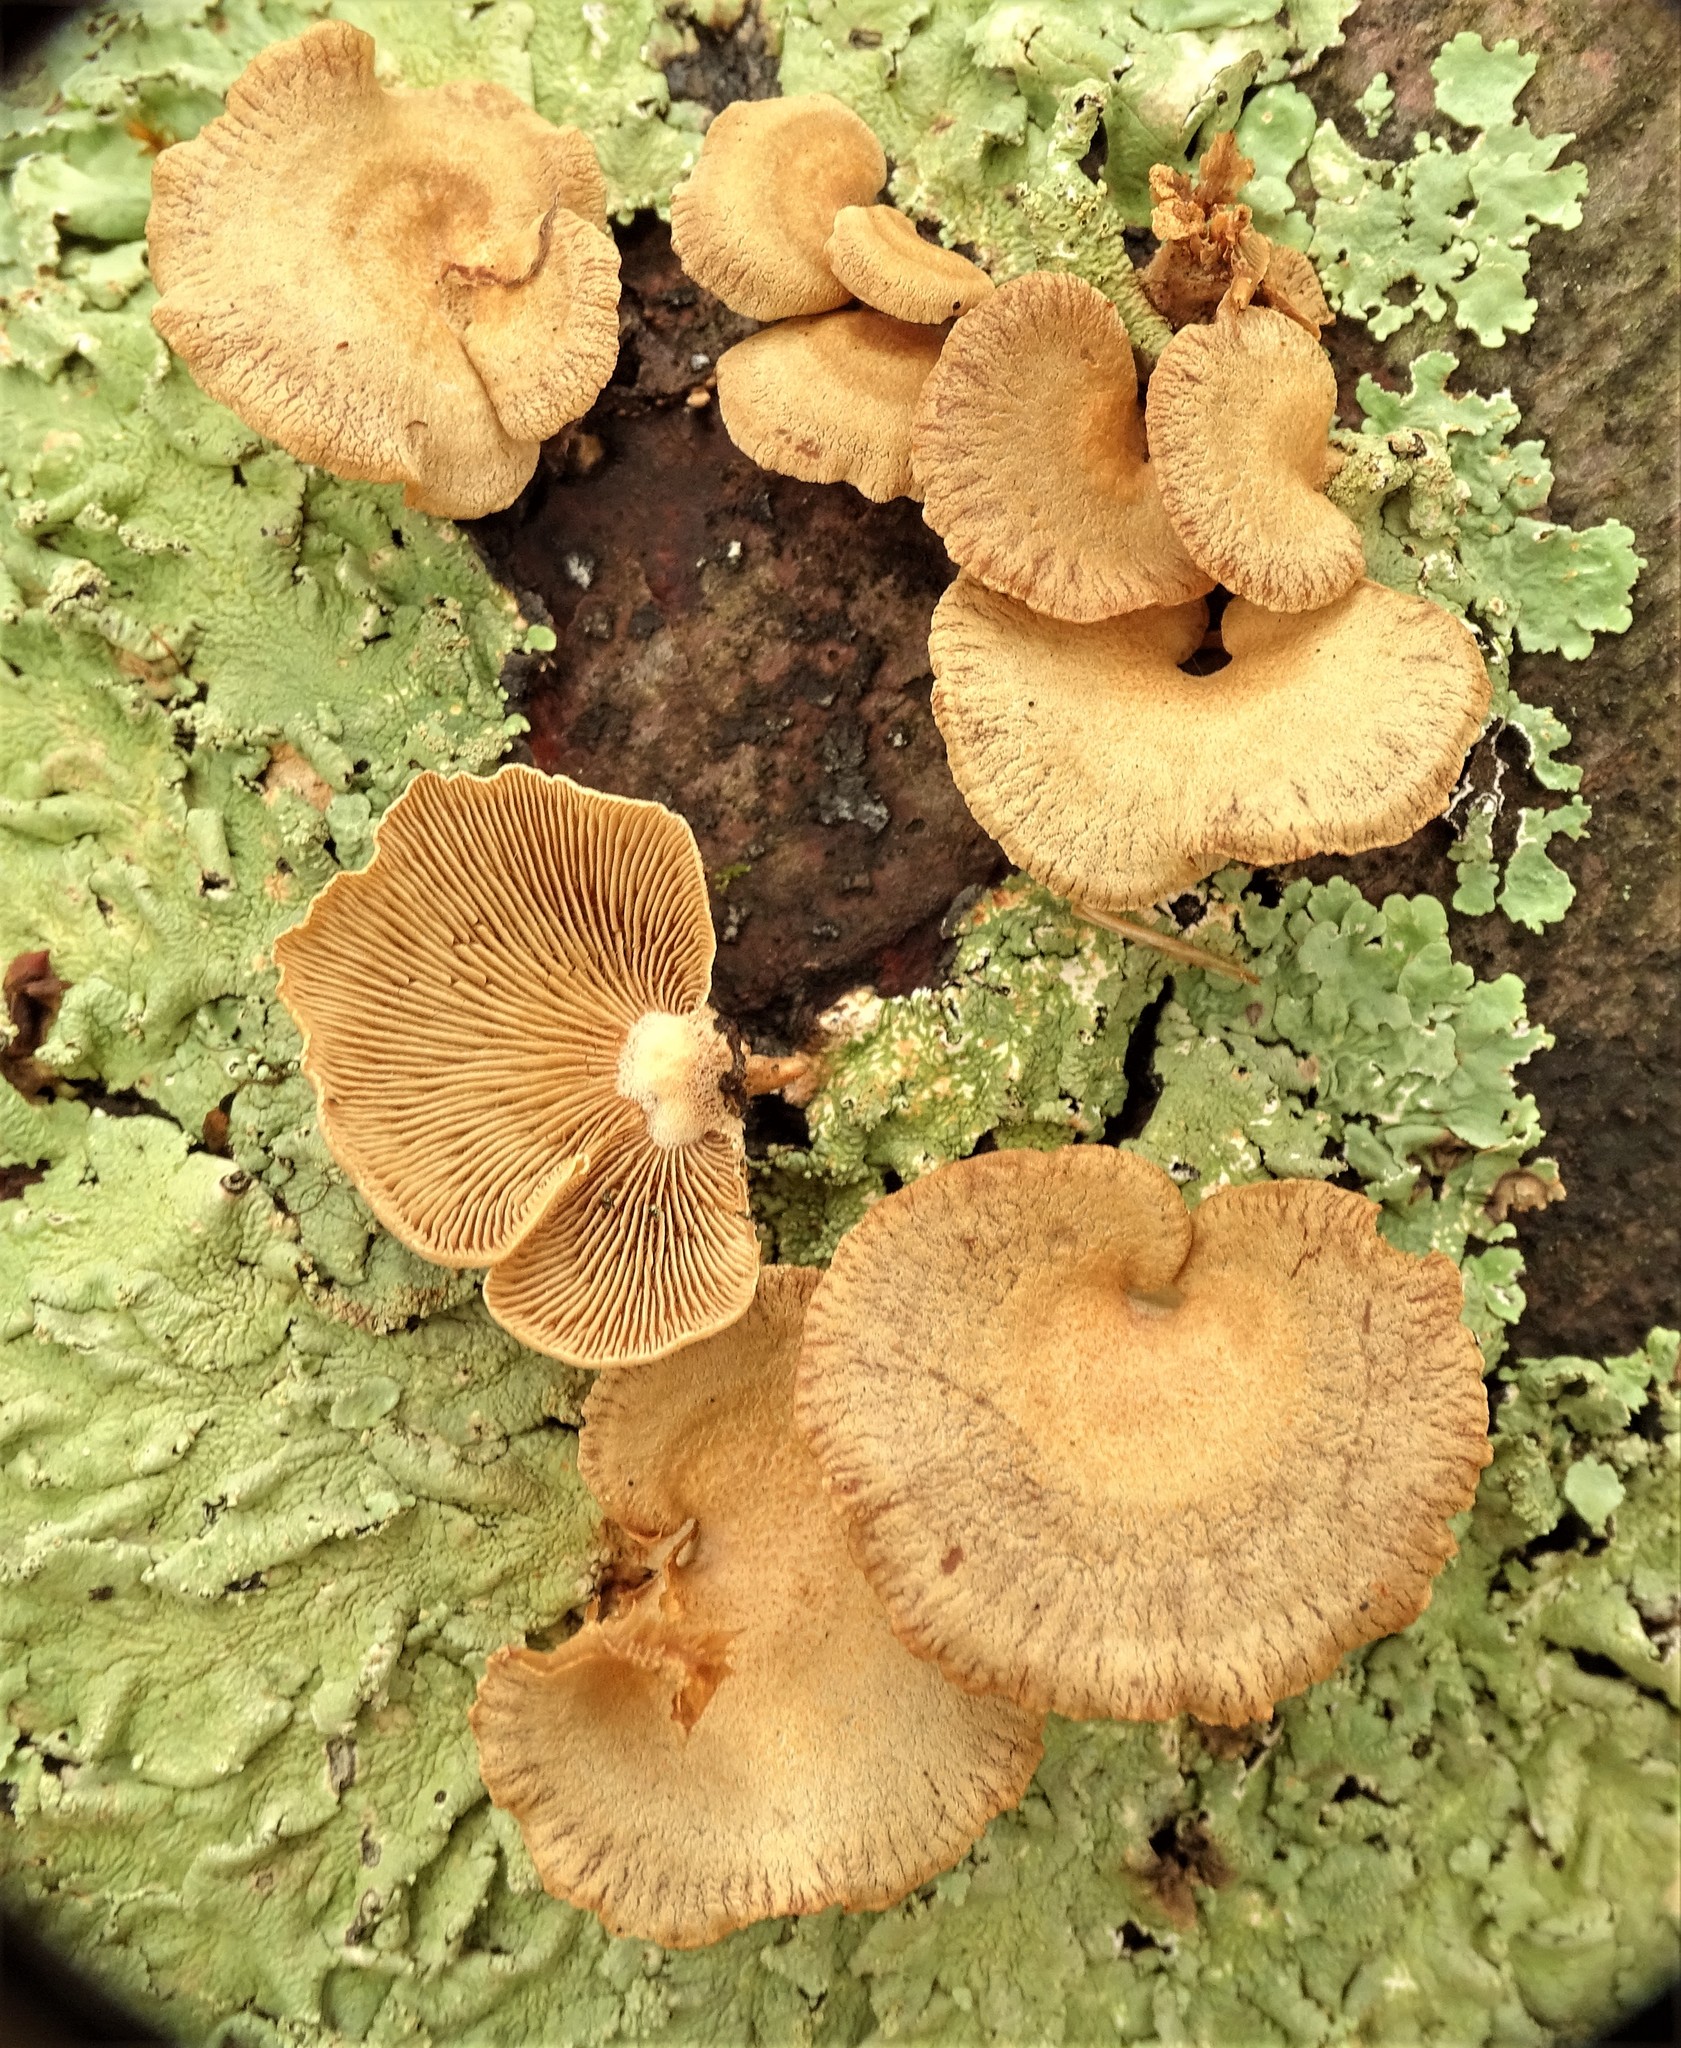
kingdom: Fungi
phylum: Basidiomycota
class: Agaricomycetes
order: Agaricales
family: Mycenaceae
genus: Panellus
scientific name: Panellus stipticus
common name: Bitter oysterling
